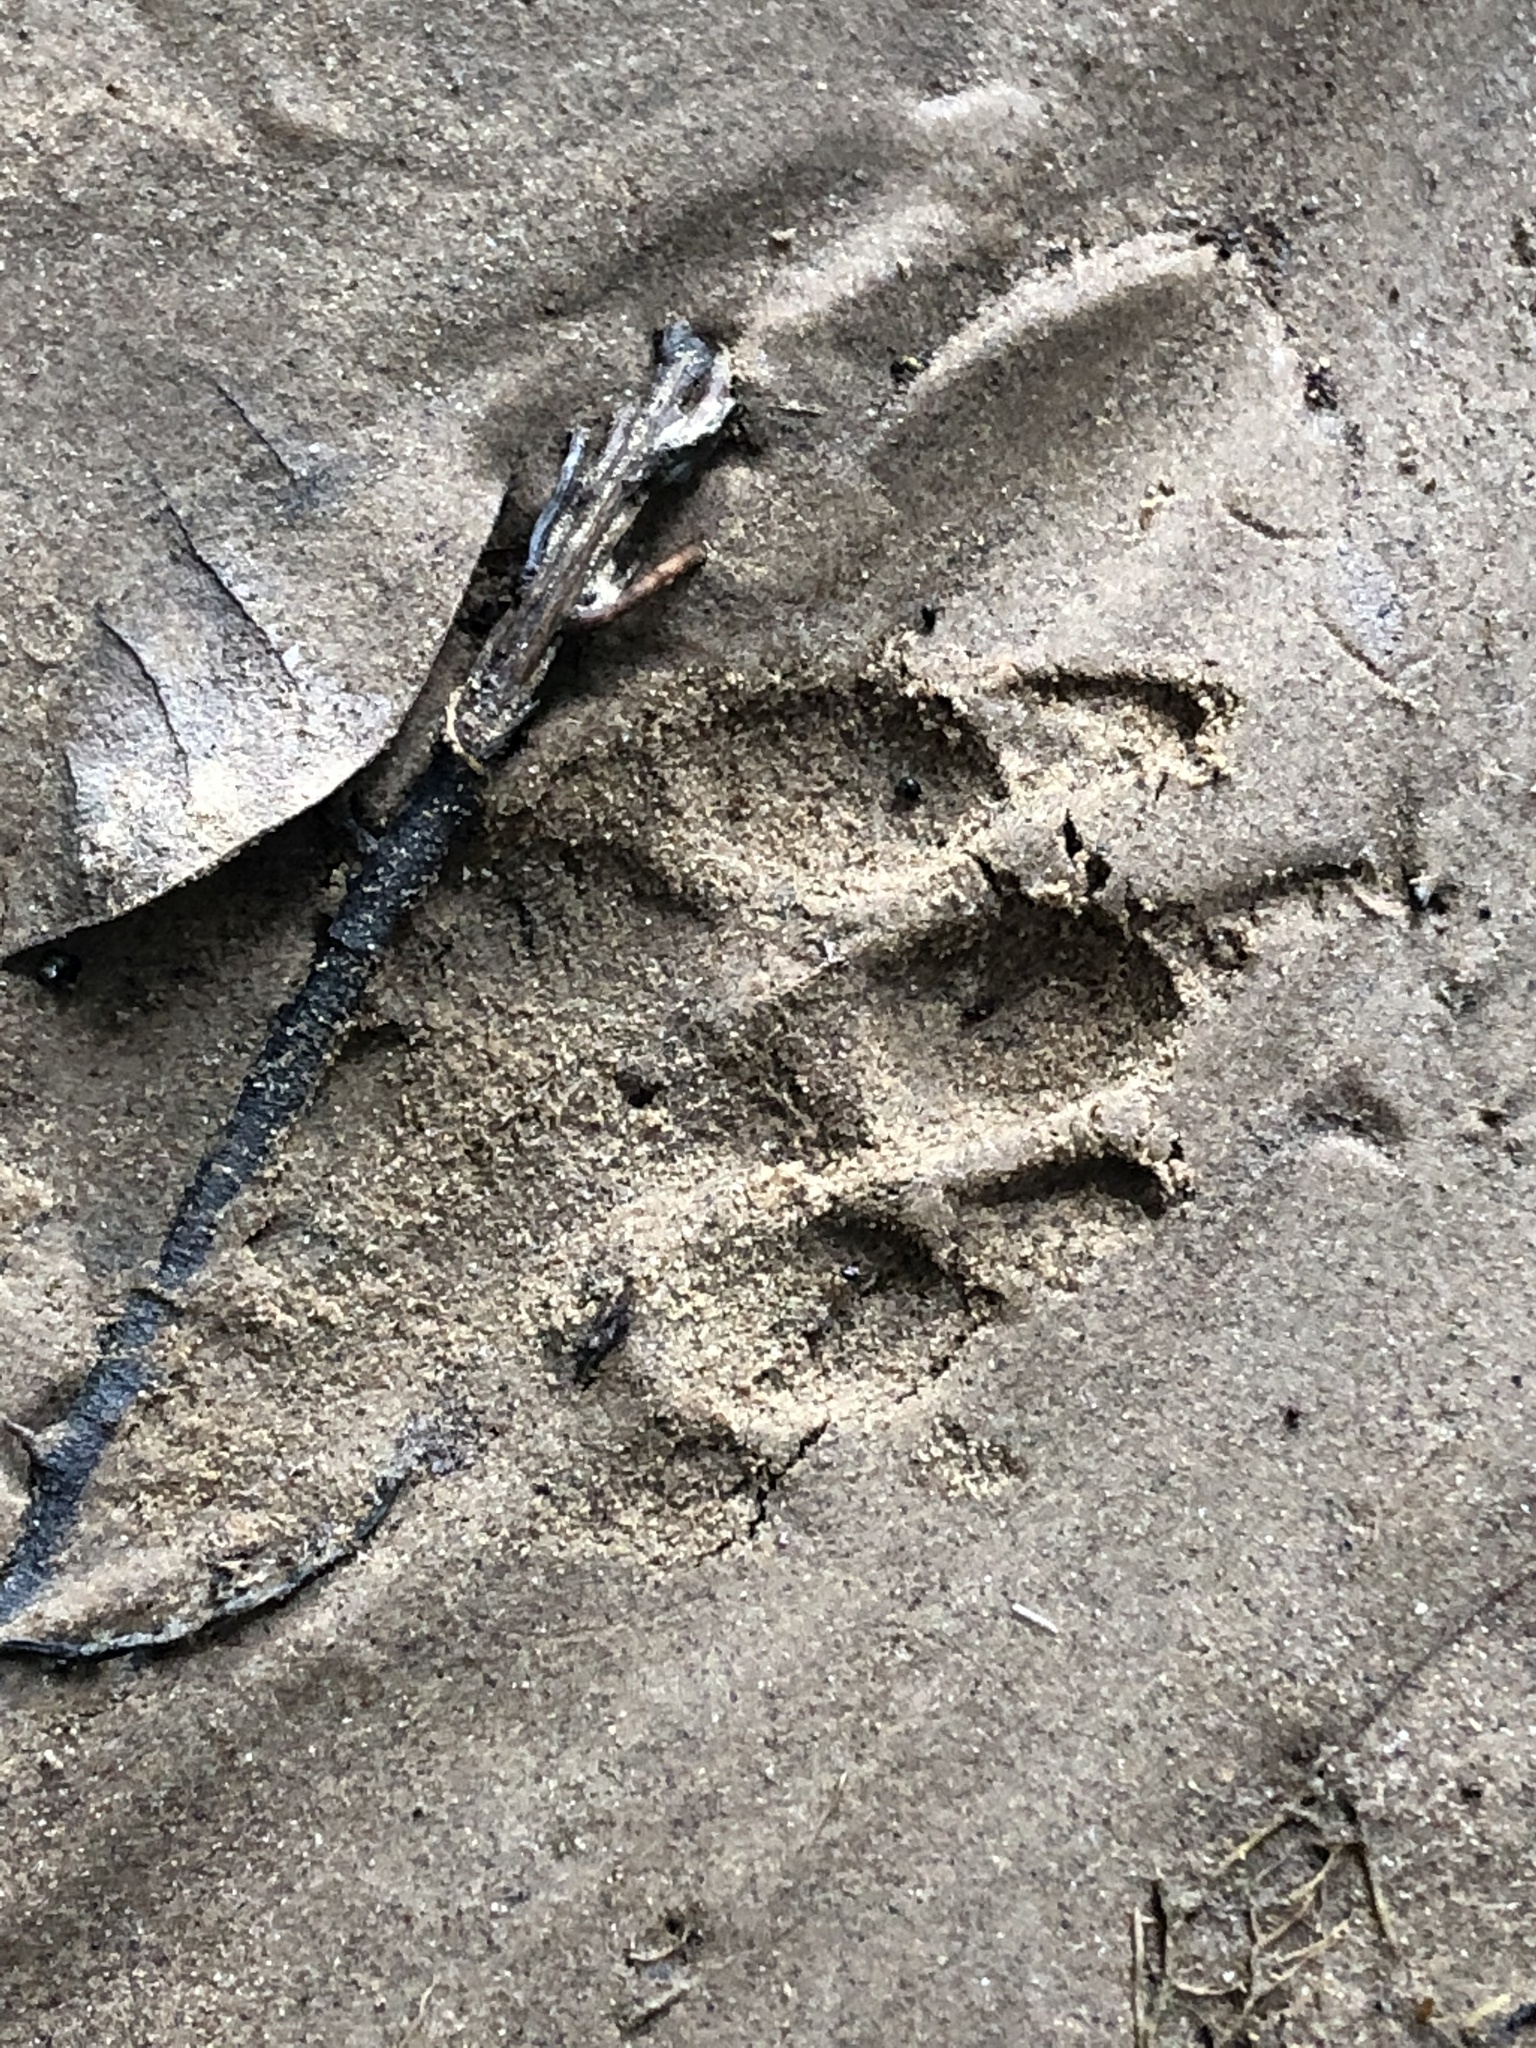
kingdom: Animalia
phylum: Chordata
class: Mammalia
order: Rodentia
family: Cuniculidae
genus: Cuniculus
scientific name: Cuniculus paca
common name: Lowland paca
